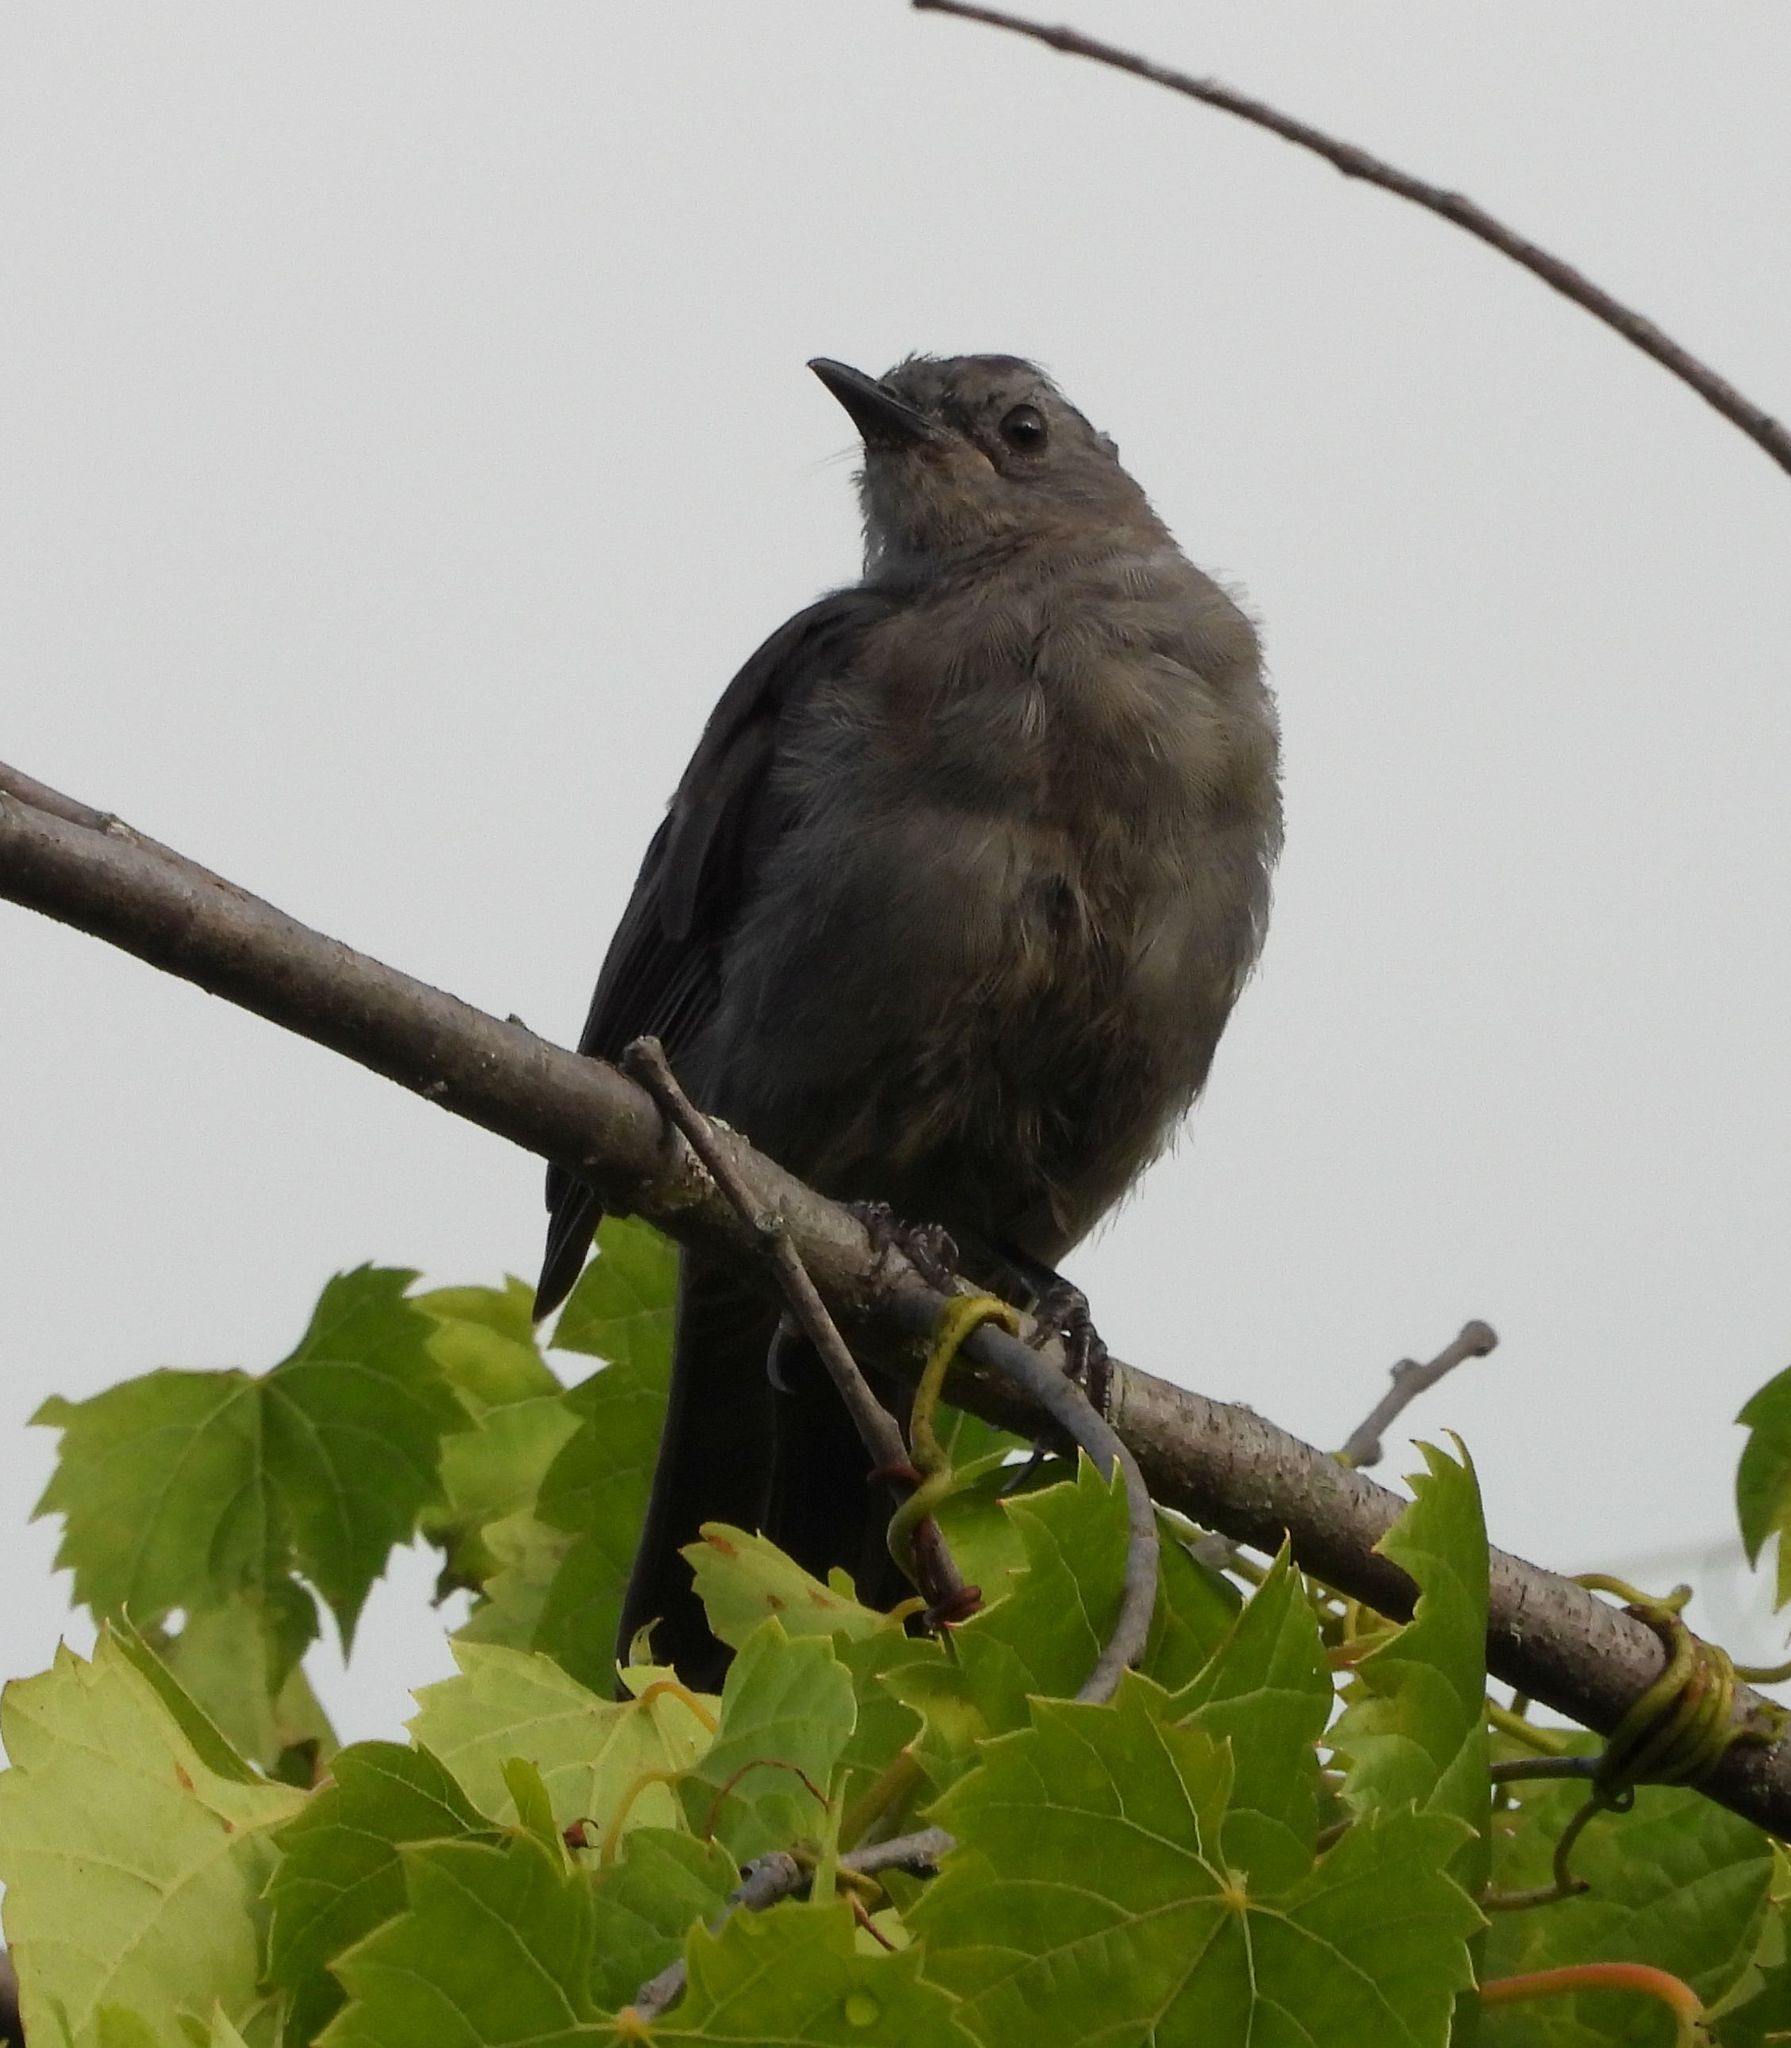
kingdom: Animalia
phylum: Chordata
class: Aves
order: Passeriformes
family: Mimidae
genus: Dumetella
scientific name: Dumetella carolinensis
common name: Gray catbird
